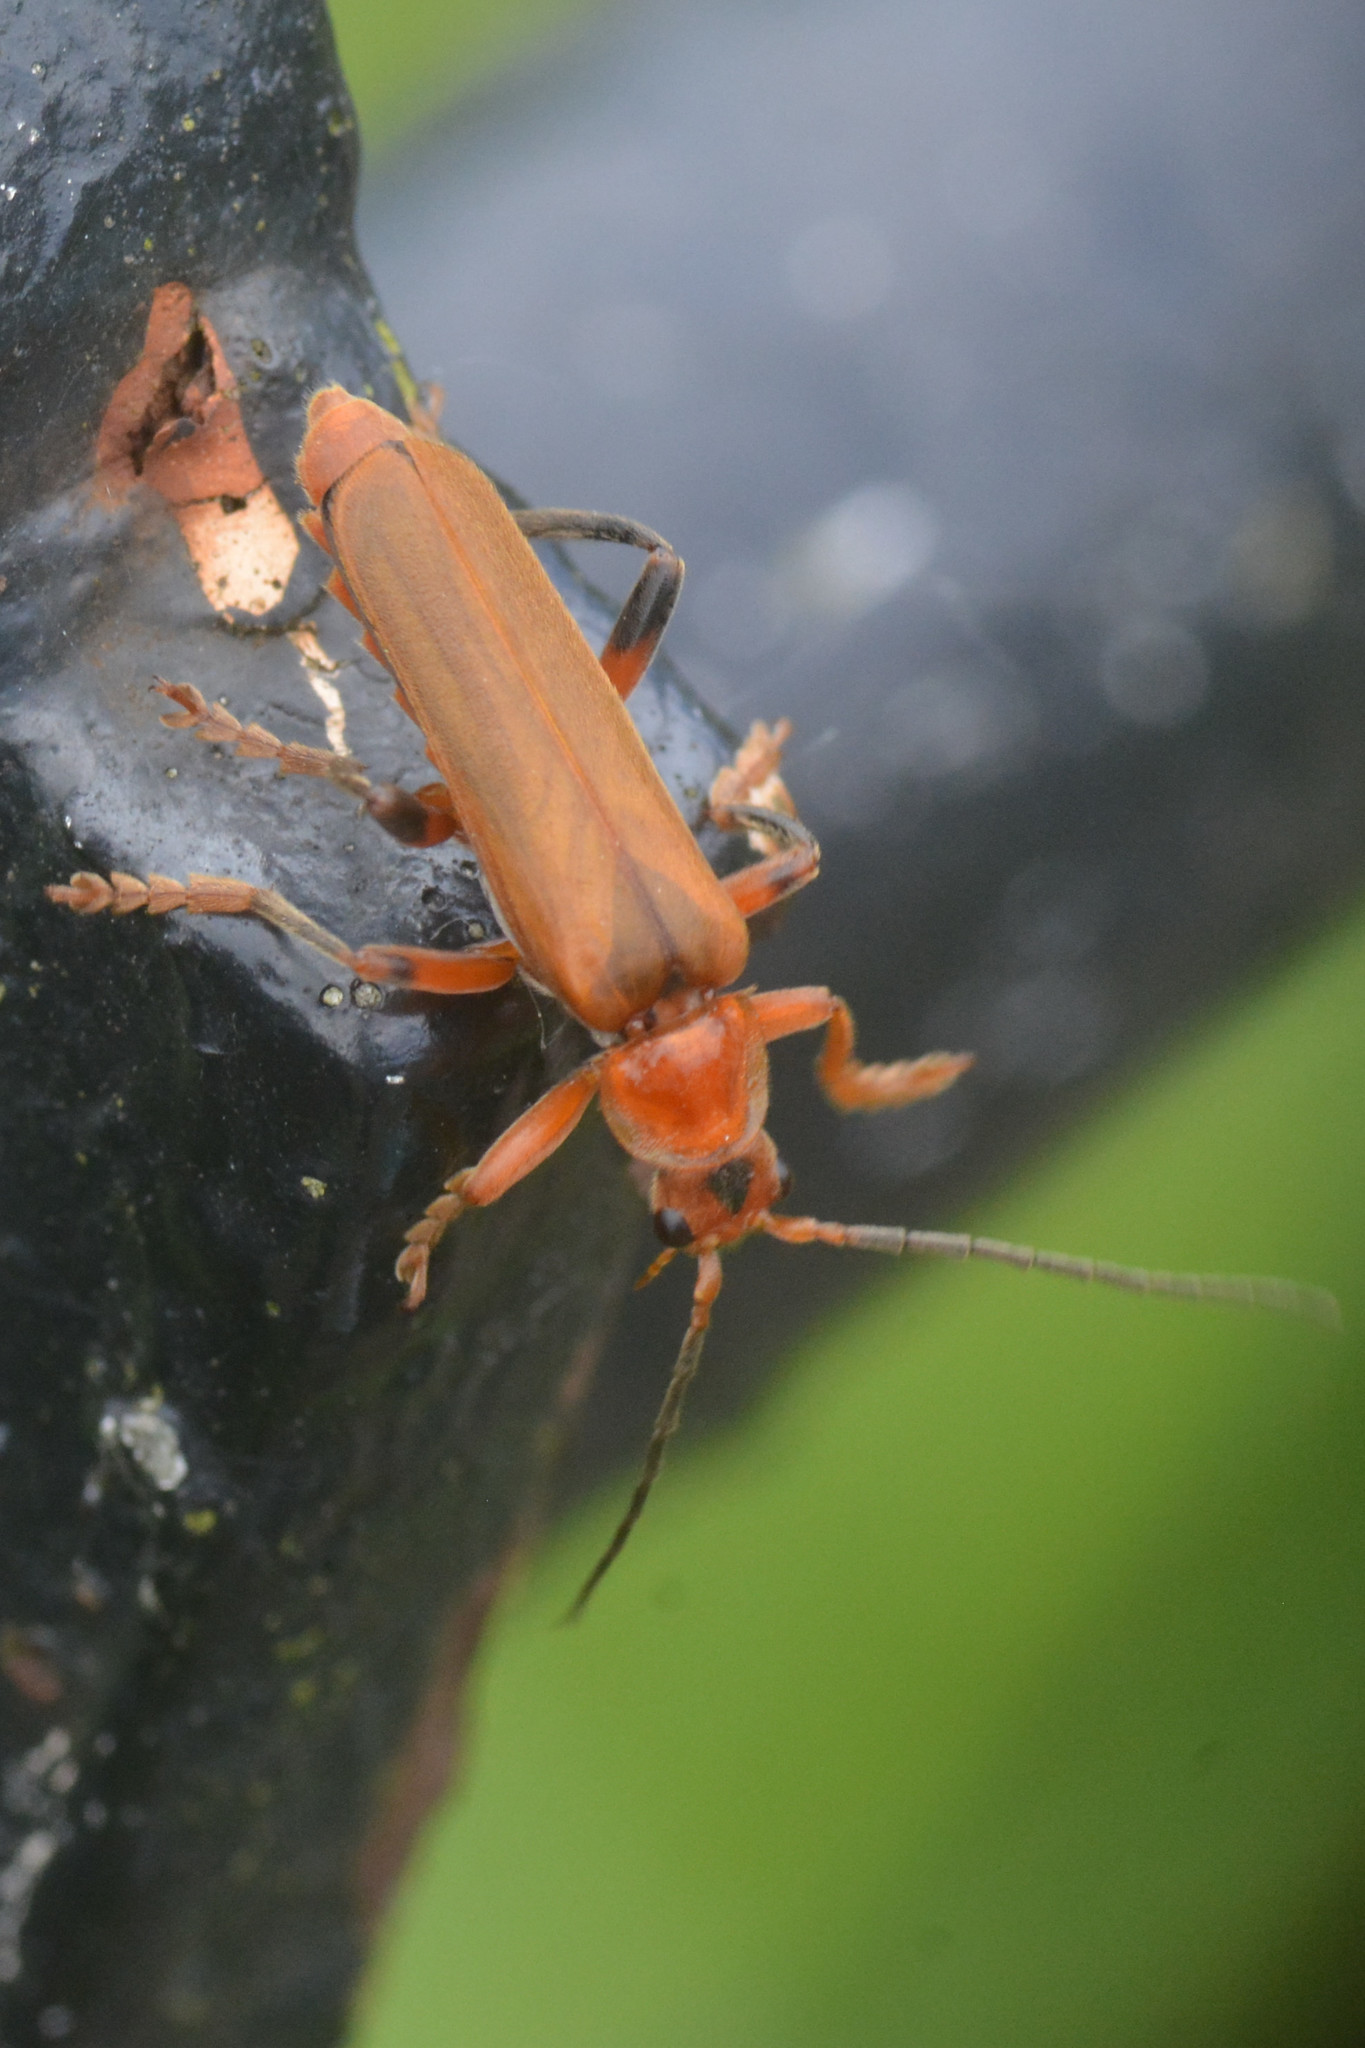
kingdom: Animalia
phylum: Arthropoda
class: Insecta
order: Coleoptera
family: Cantharidae
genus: Cantharis
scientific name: Cantharis livida
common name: Livid soldier beetle
